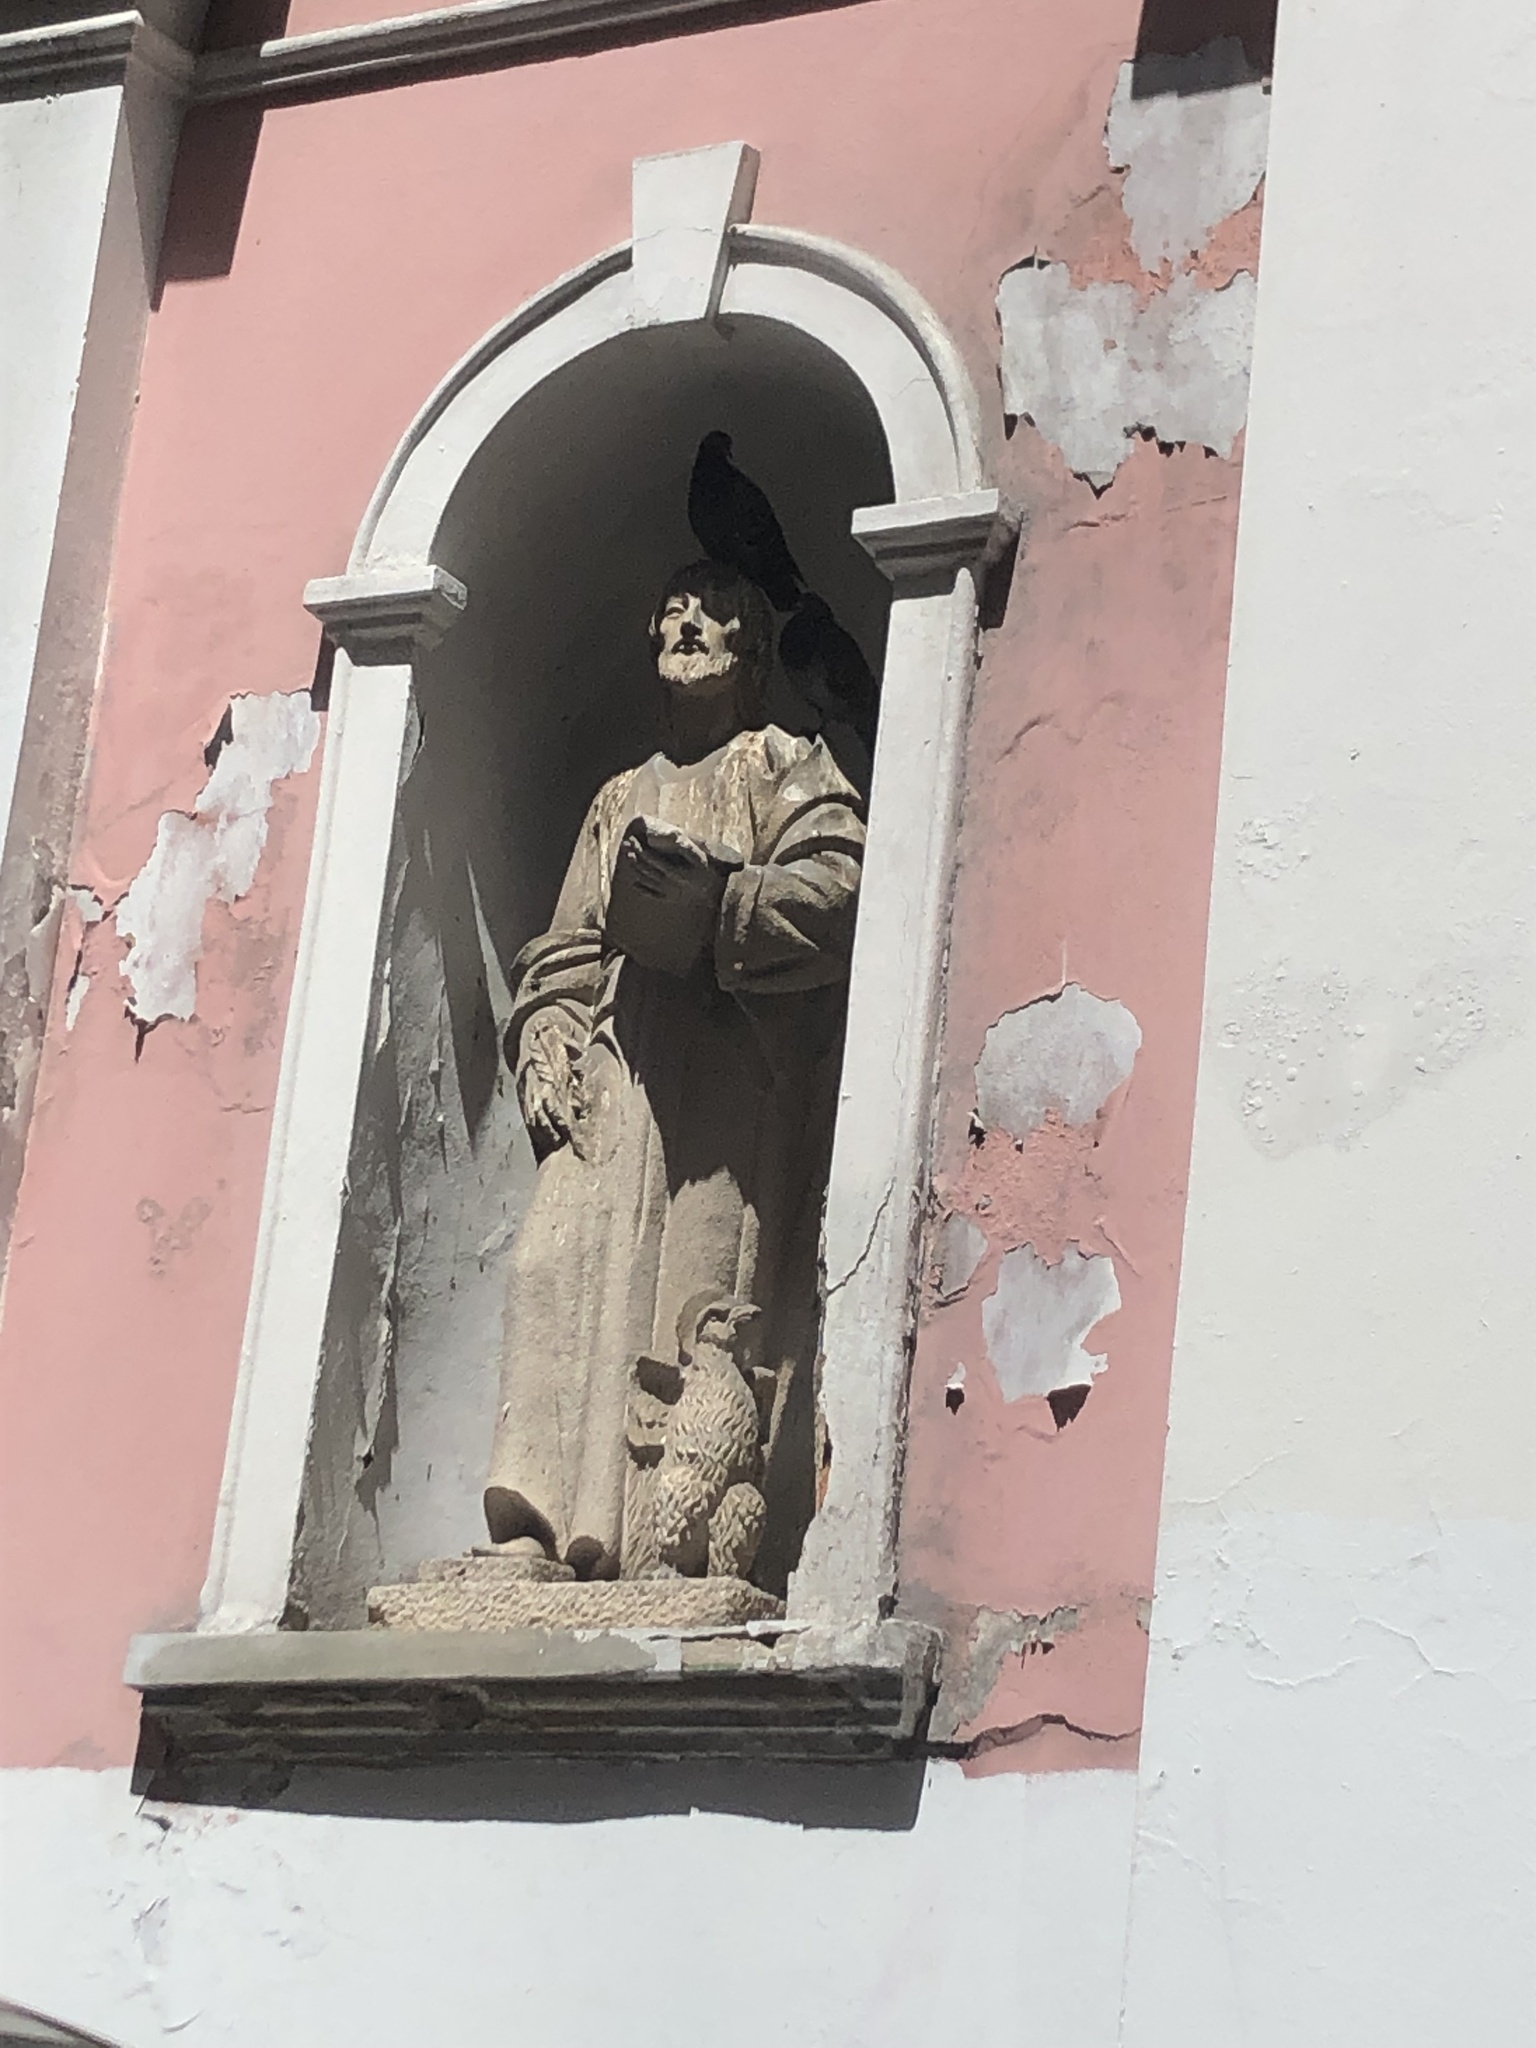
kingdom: Animalia
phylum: Chordata
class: Aves
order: Columbiformes
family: Columbidae
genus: Columba
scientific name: Columba livia
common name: Rock pigeon
